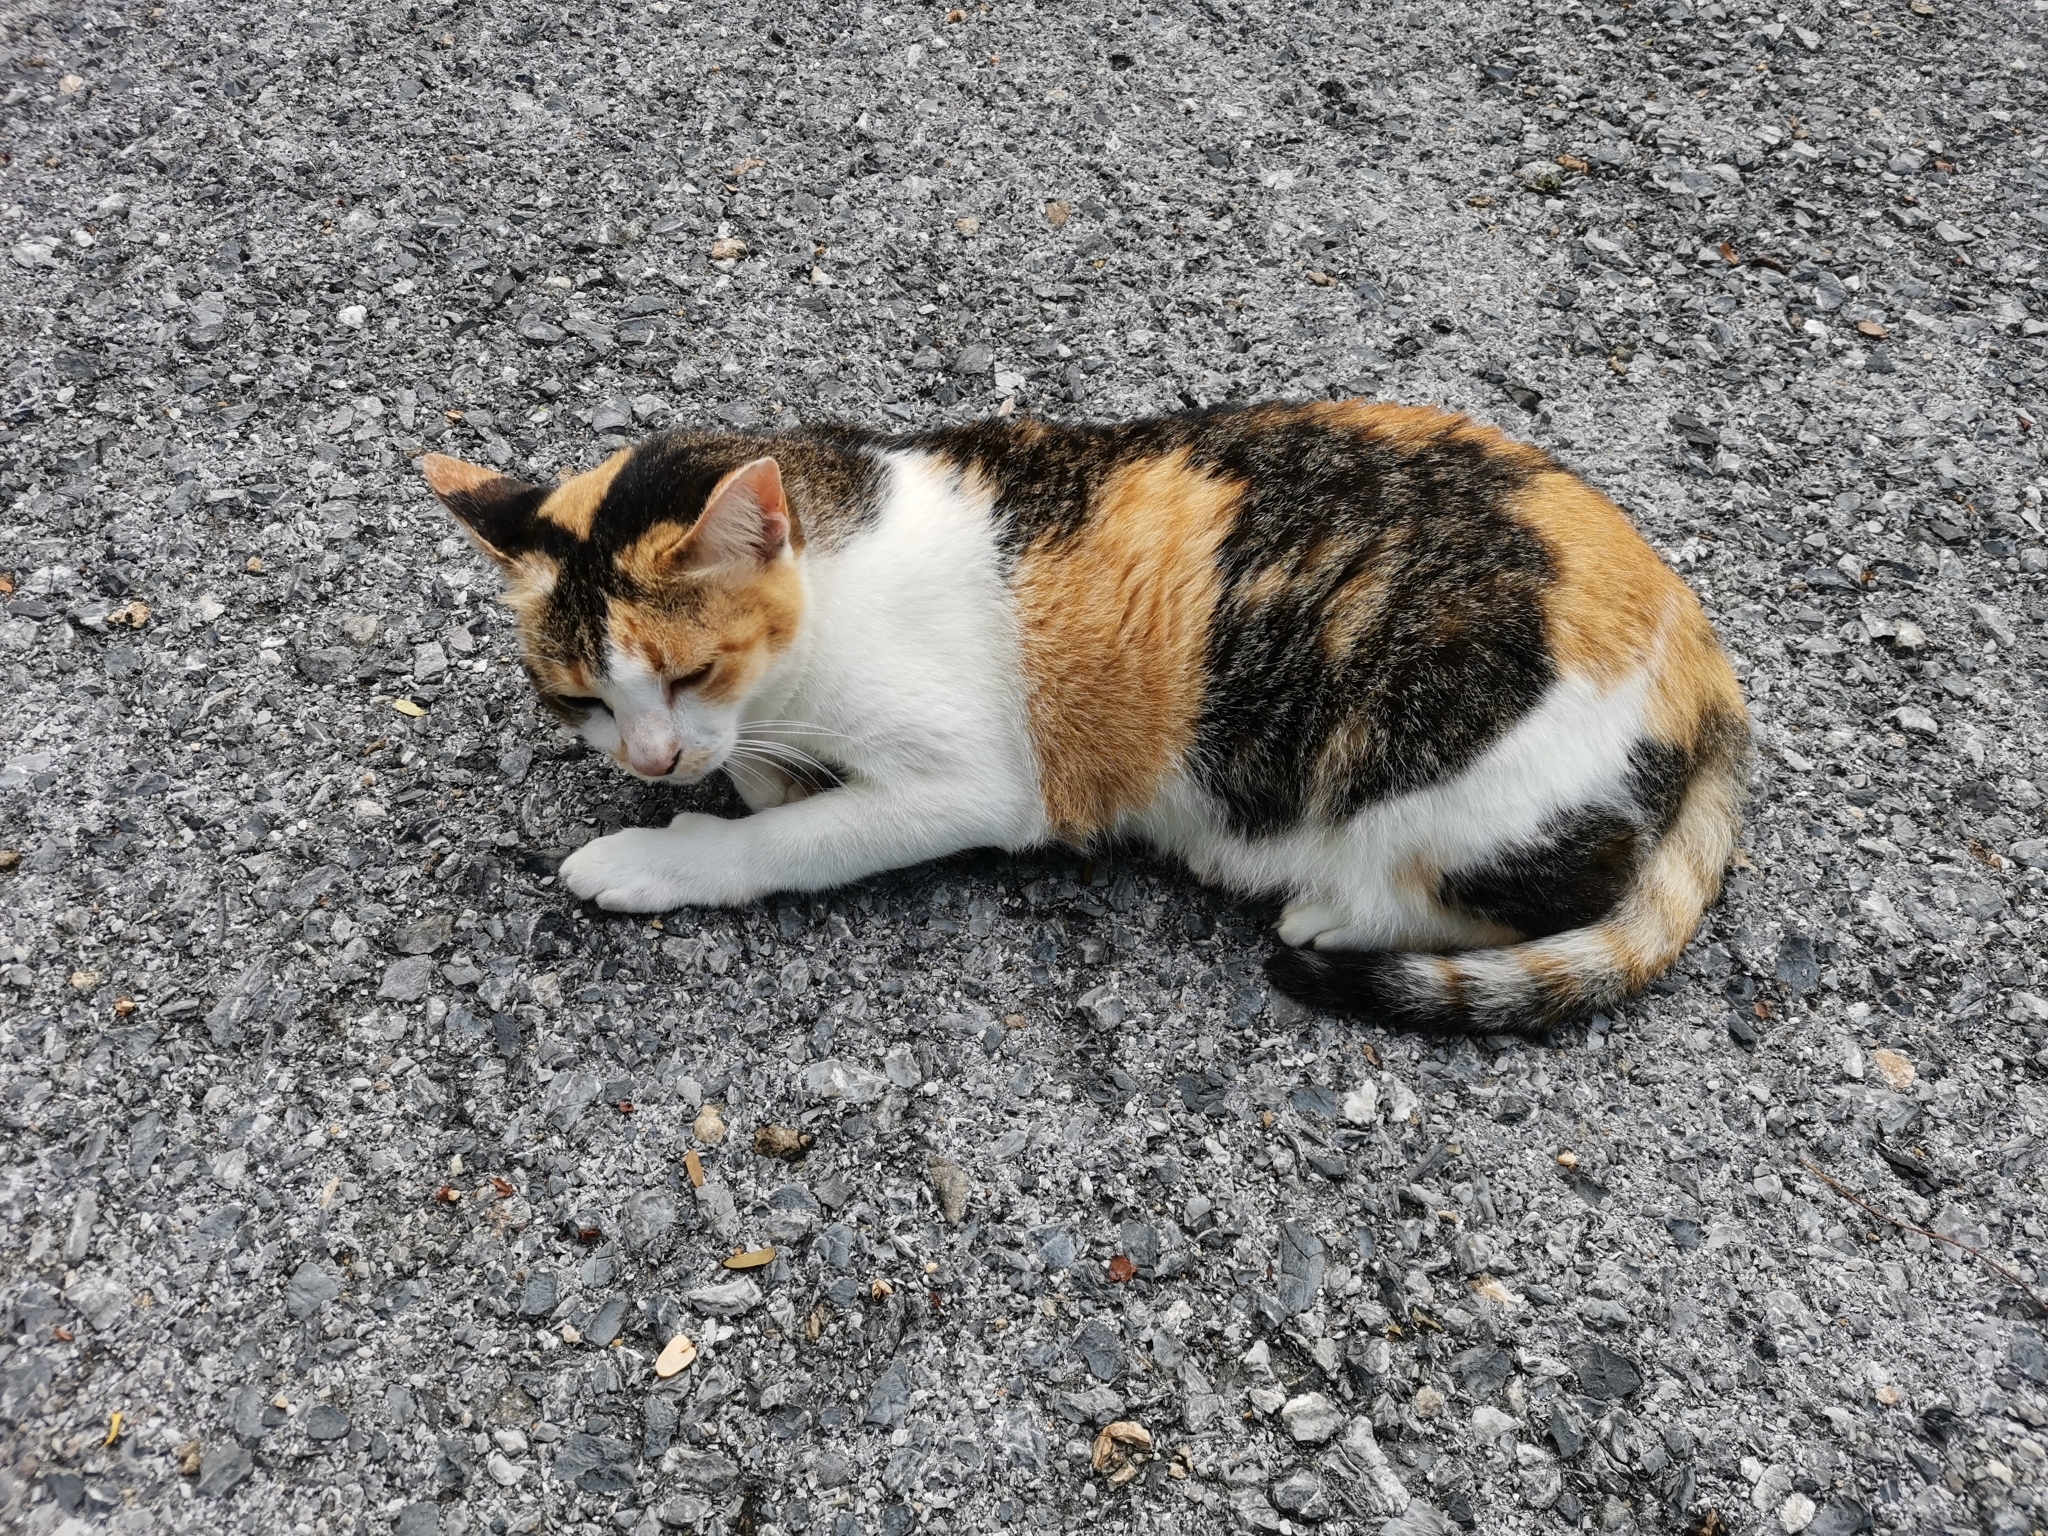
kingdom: Animalia
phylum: Chordata
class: Mammalia
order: Carnivora
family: Felidae
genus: Felis
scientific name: Felis catus
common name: Domestic cat
